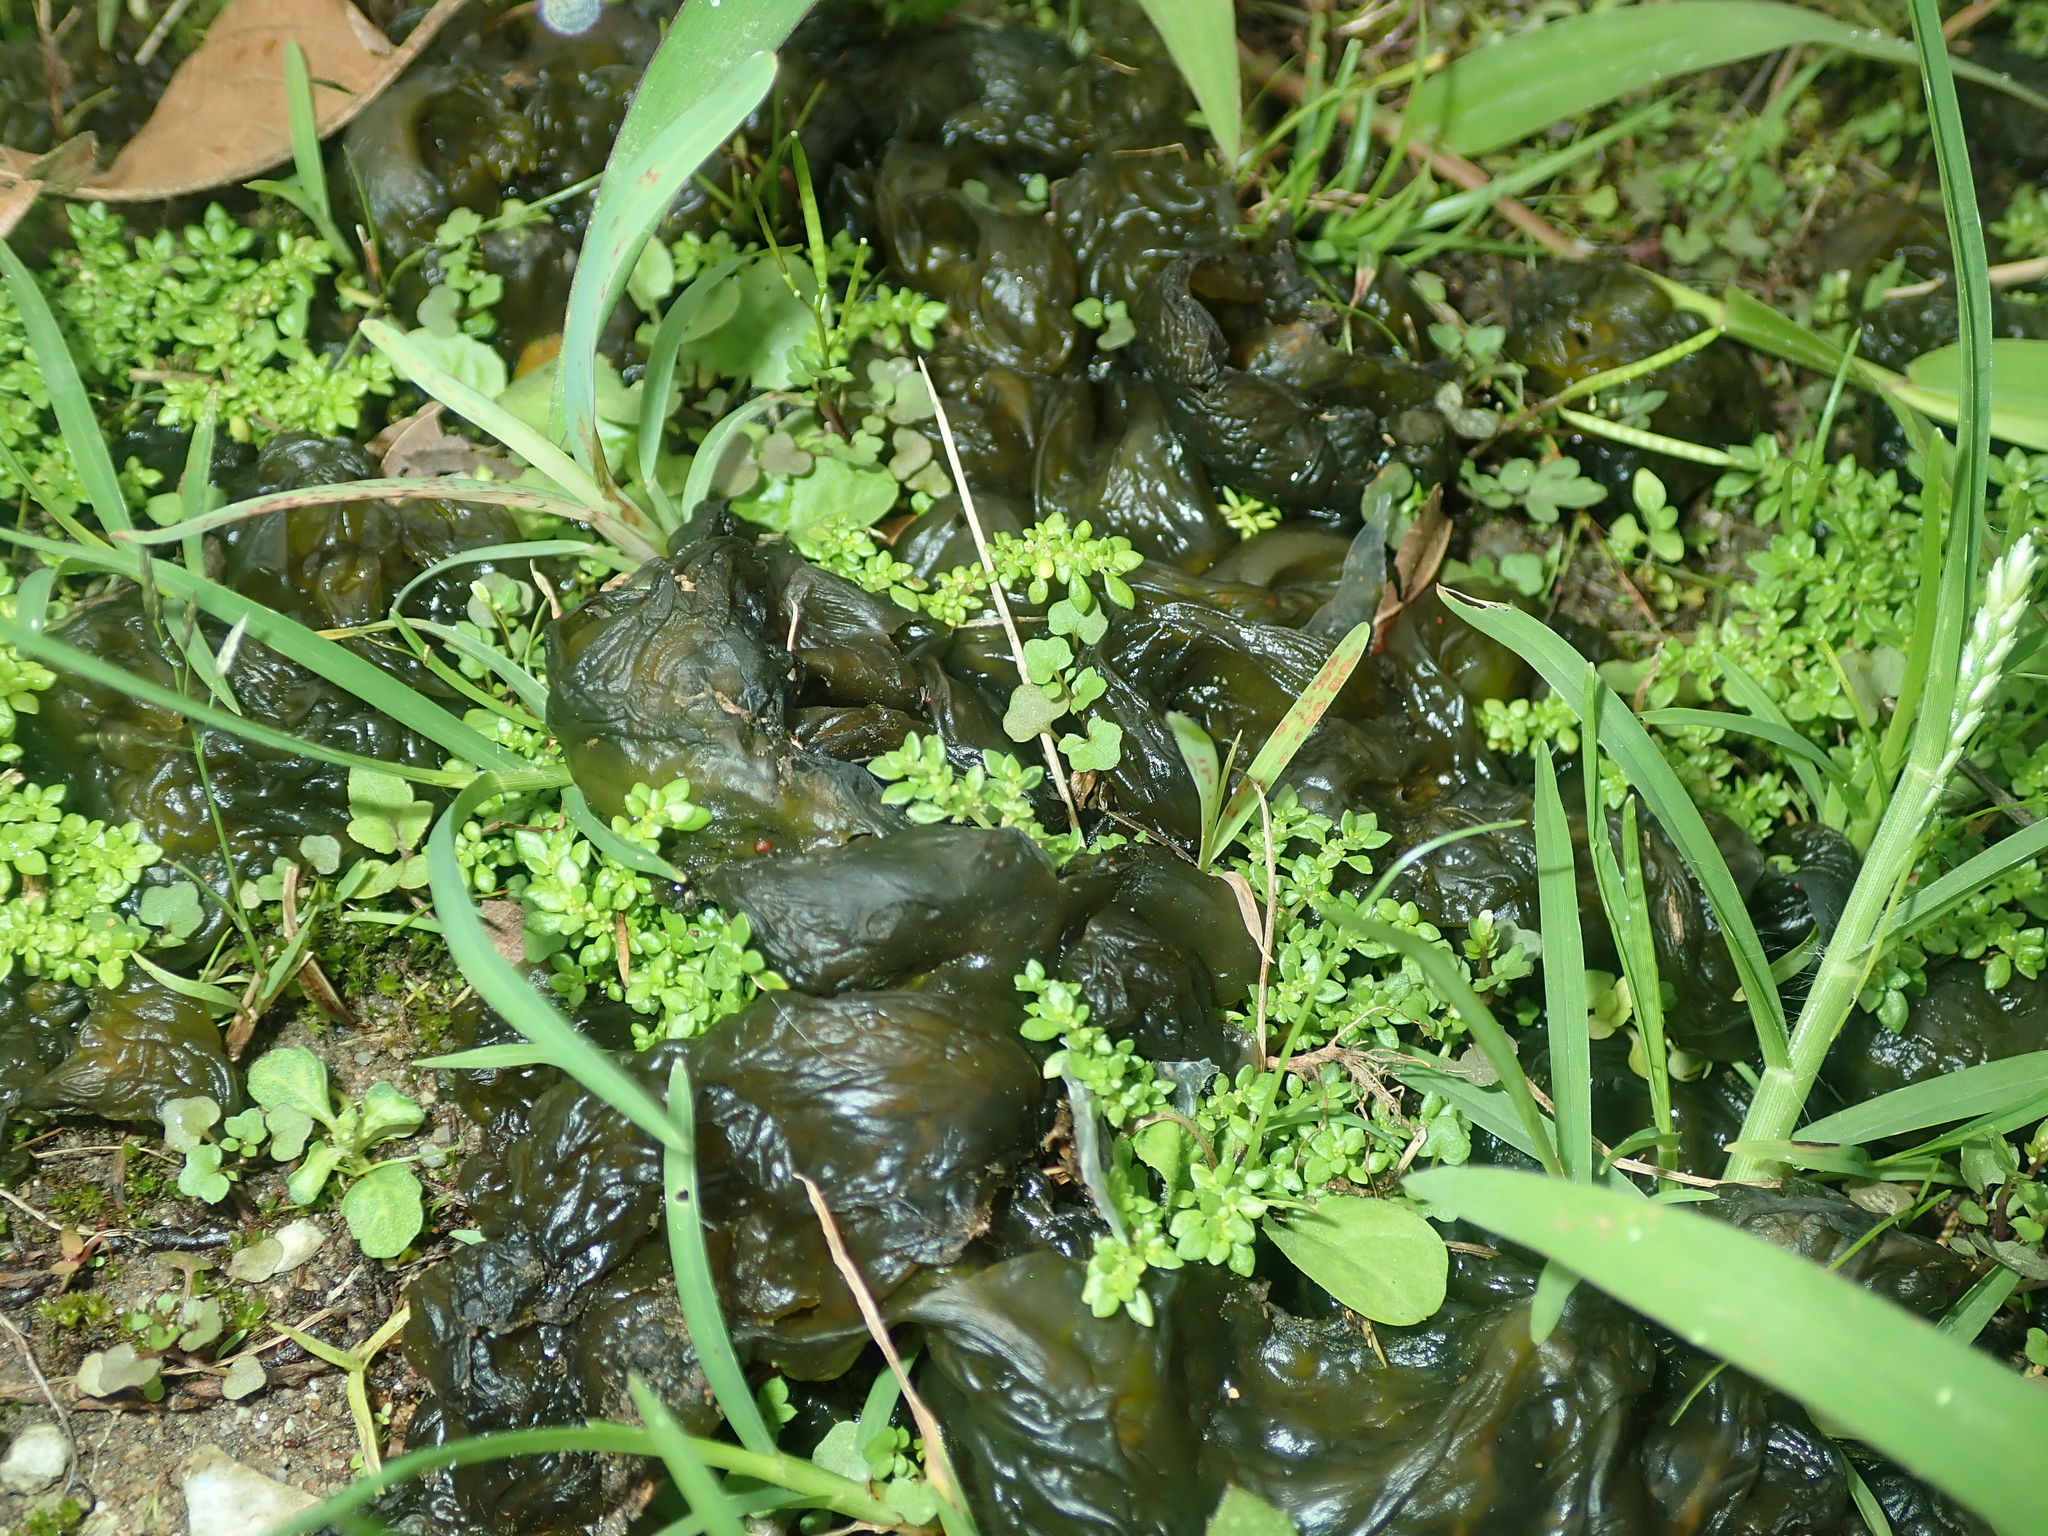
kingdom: Bacteria
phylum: Cyanobacteria
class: Cyanobacteriia
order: Cyanobacteriales
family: Nostocaceae
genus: Nostoc
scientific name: Nostoc commune
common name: Star jelly
